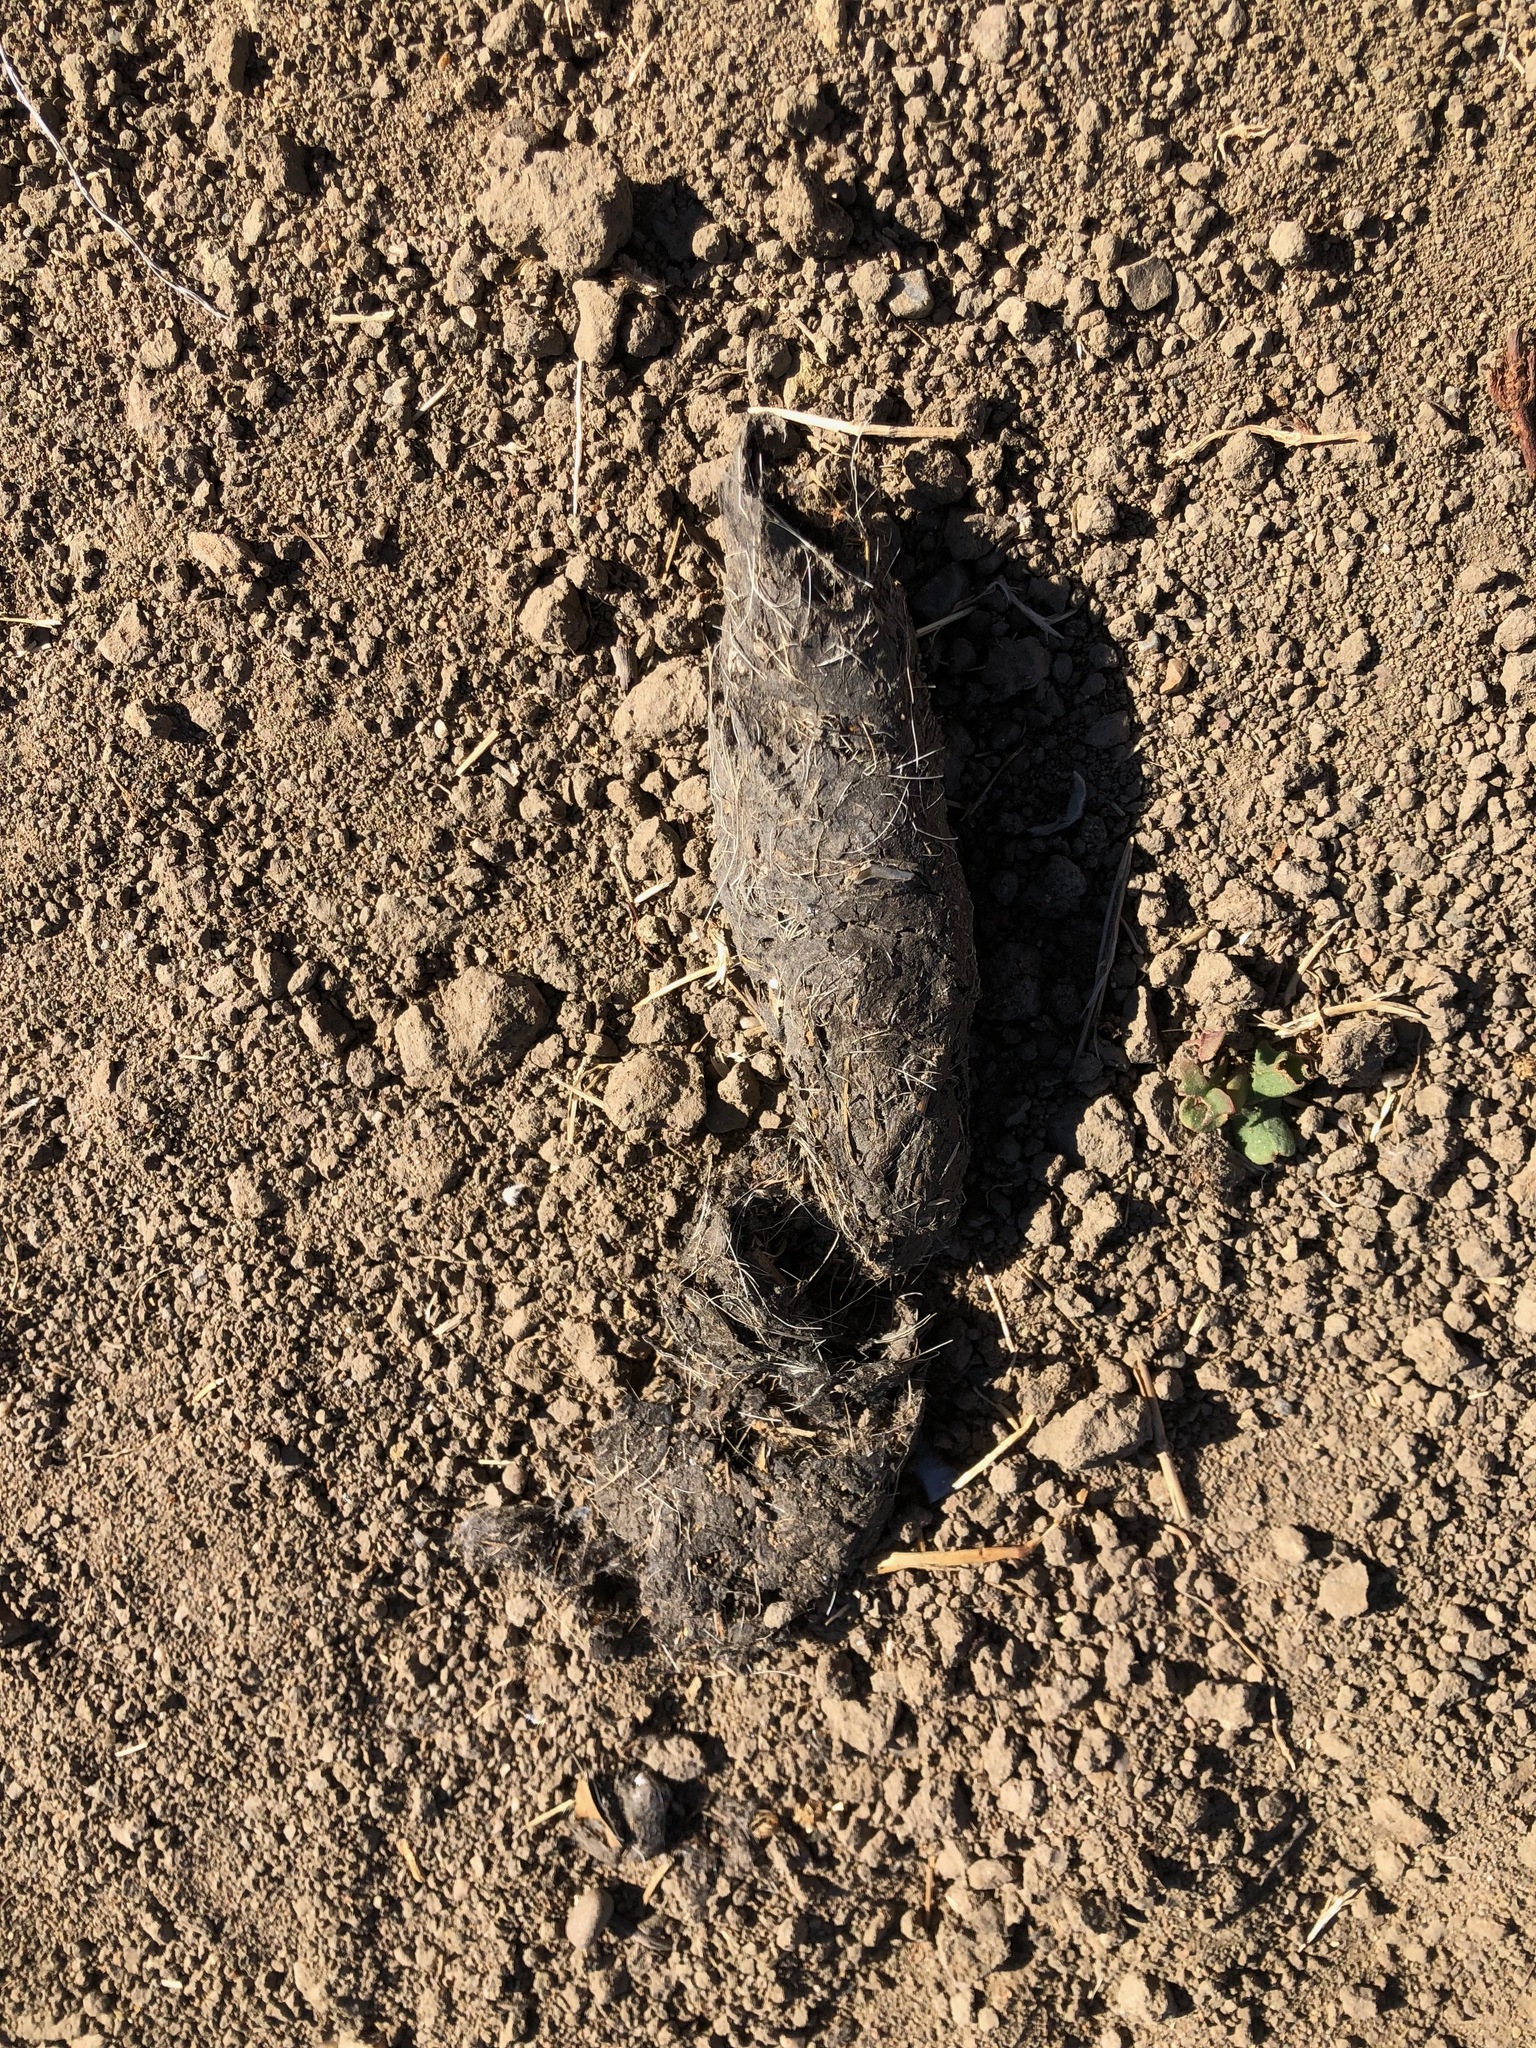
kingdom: Animalia
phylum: Chordata
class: Mammalia
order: Carnivora
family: Canidae
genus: Canis
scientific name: Canis latrans
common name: Coyote
